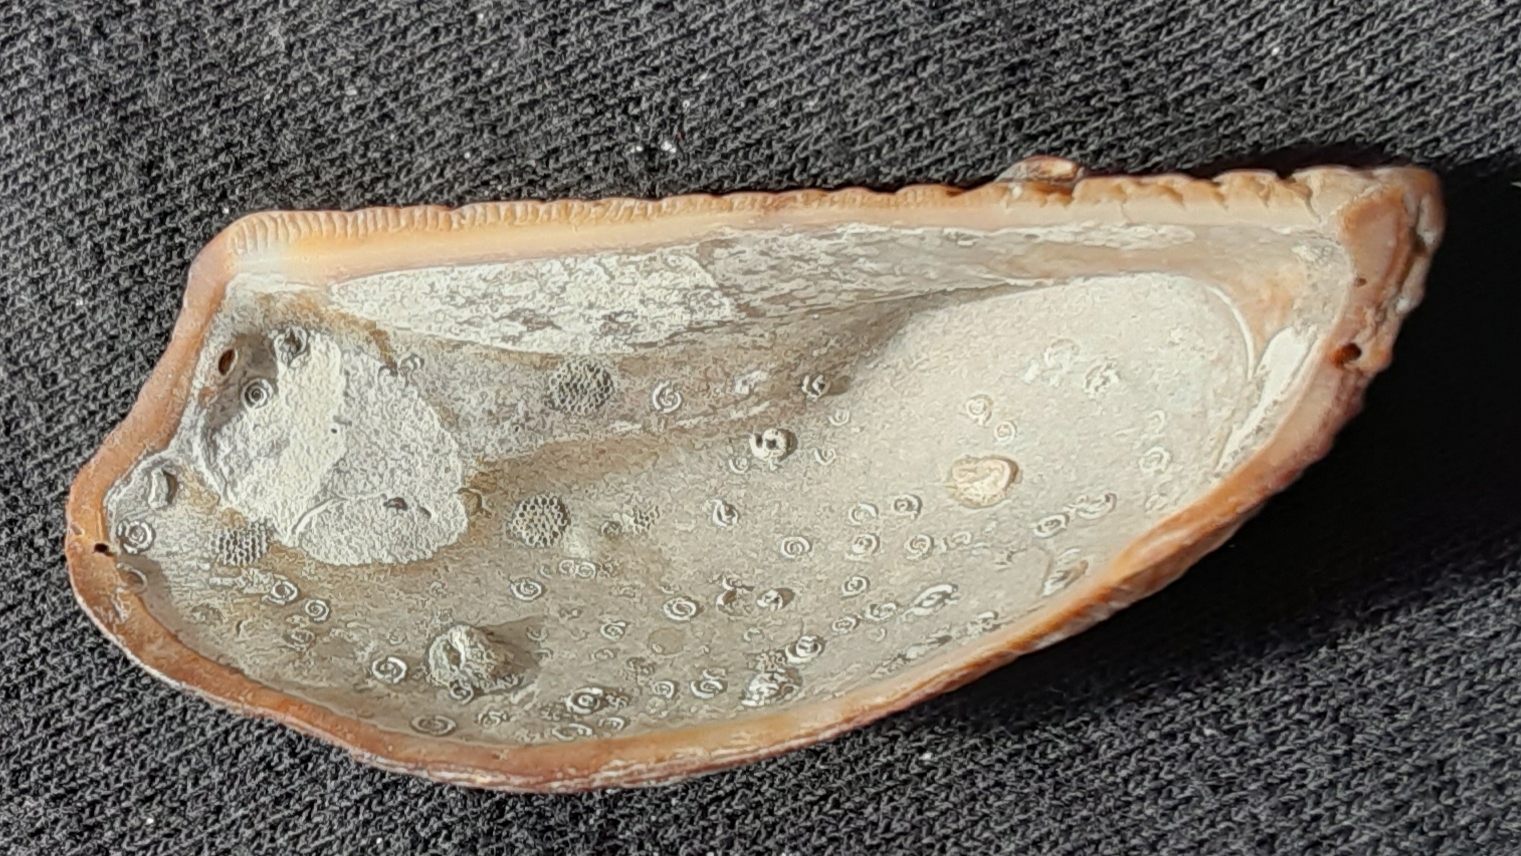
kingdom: Animalia
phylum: Mollusca
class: Bivalvia
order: Arcida
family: Arcidae
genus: Lamarcka
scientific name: Lamarcka imbricata
